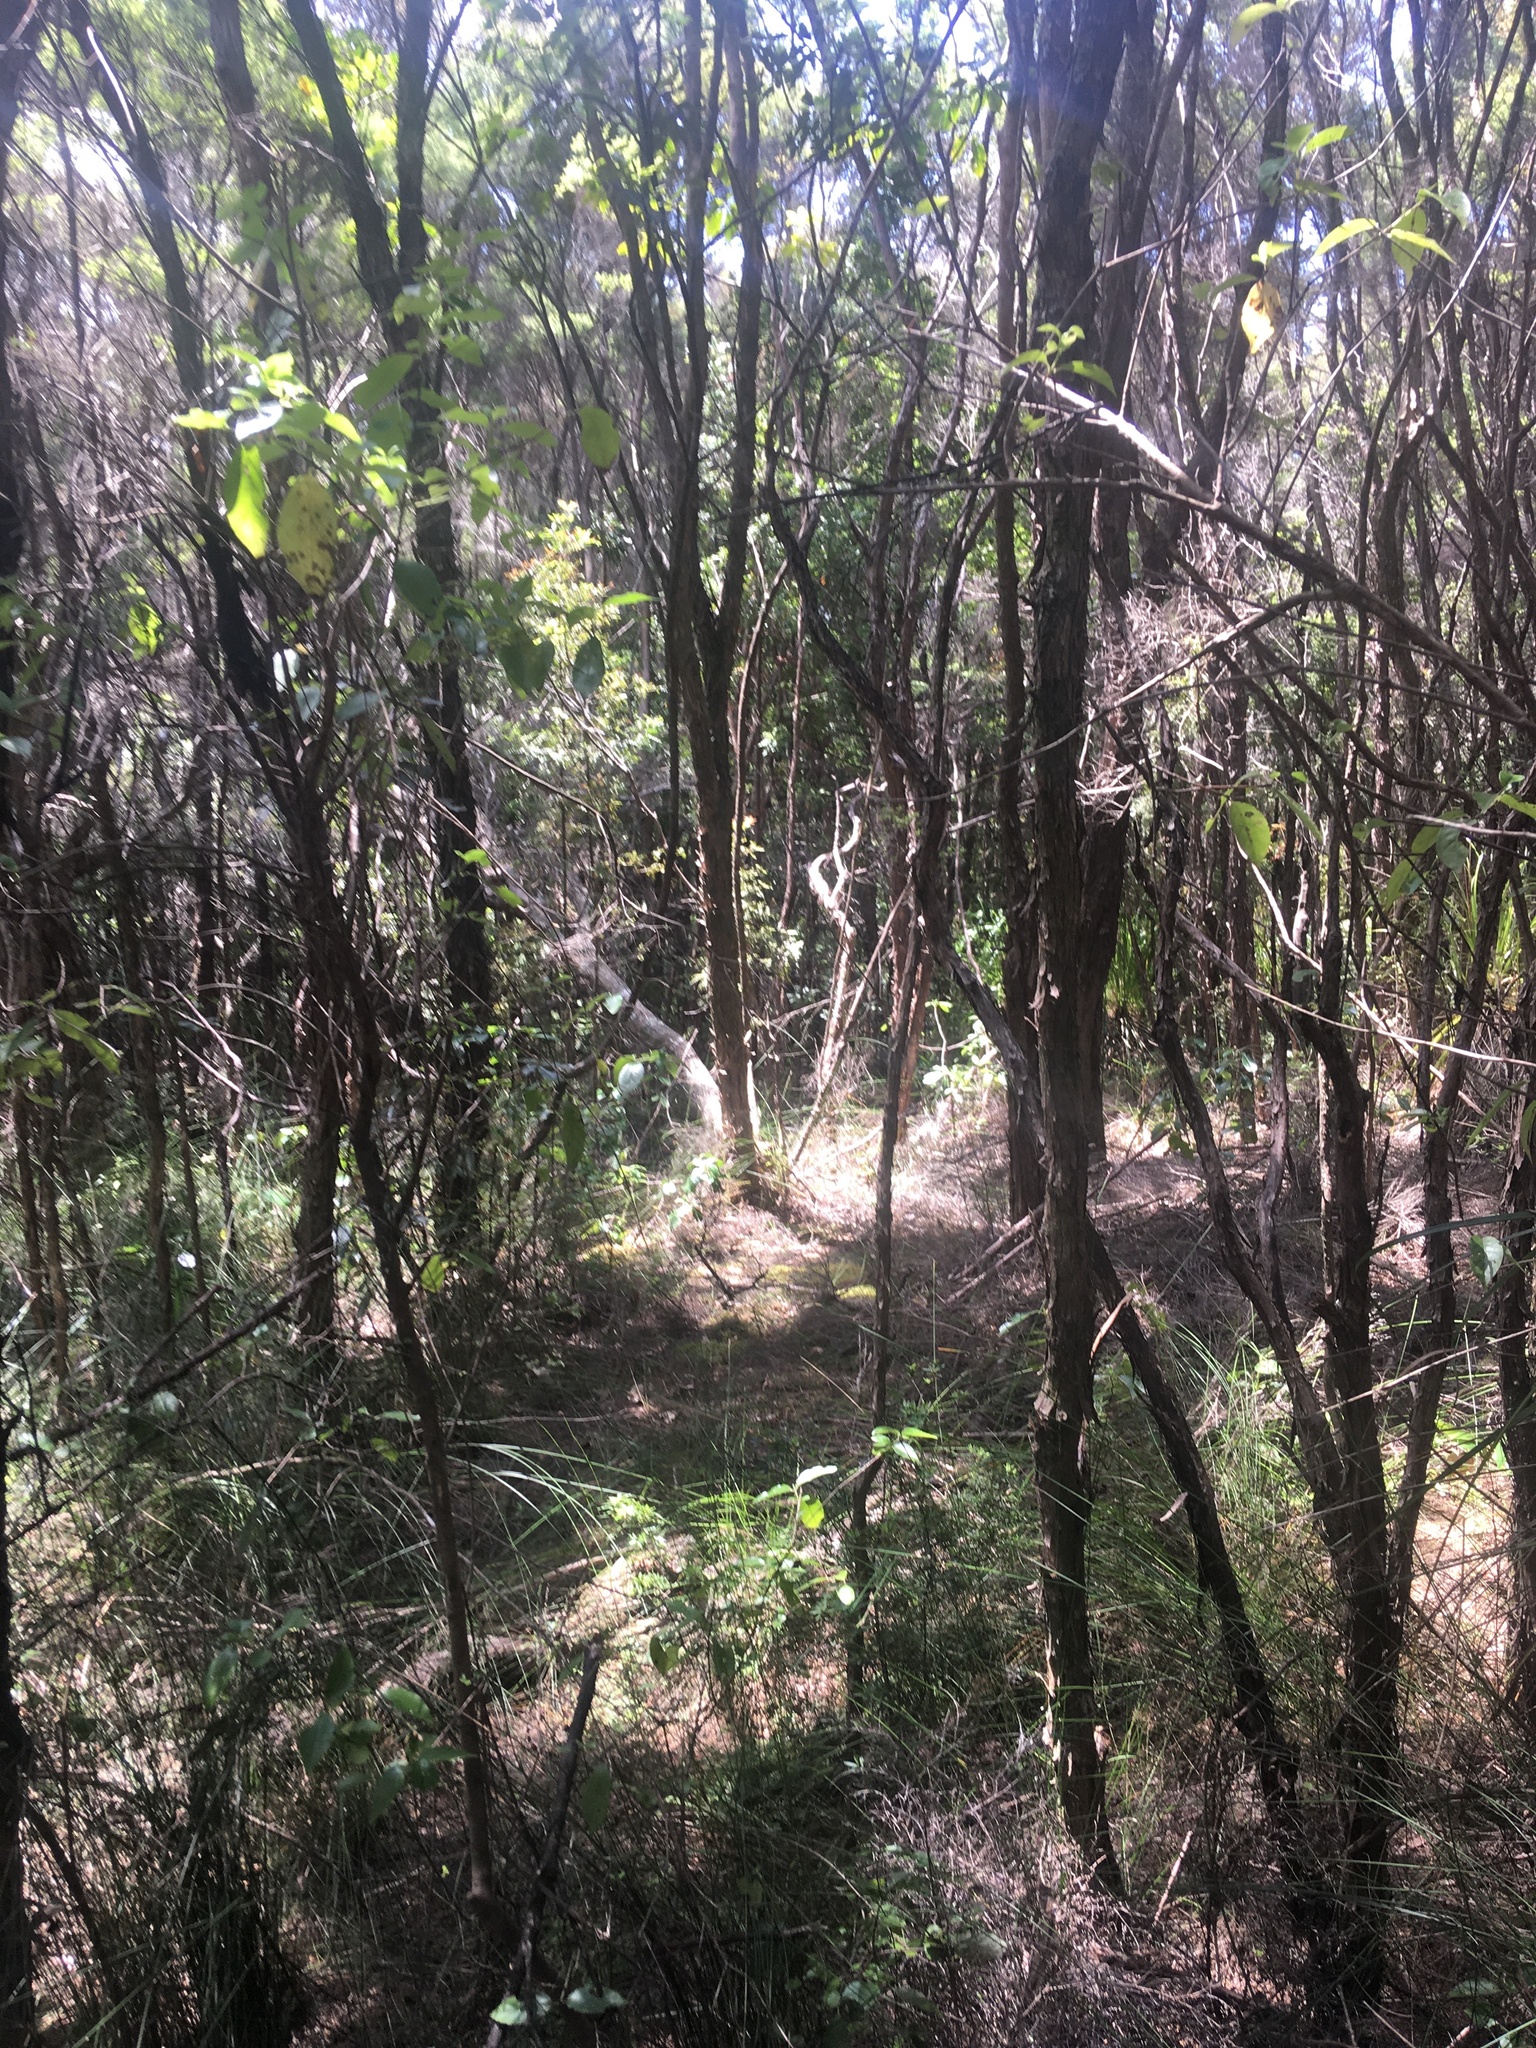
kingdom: Plantae
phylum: Tracheophyta
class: Magnoliopsida
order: Gentianales
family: Loganiaceae
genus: Geniostoma
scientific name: Geniostoma ligustrifolium
